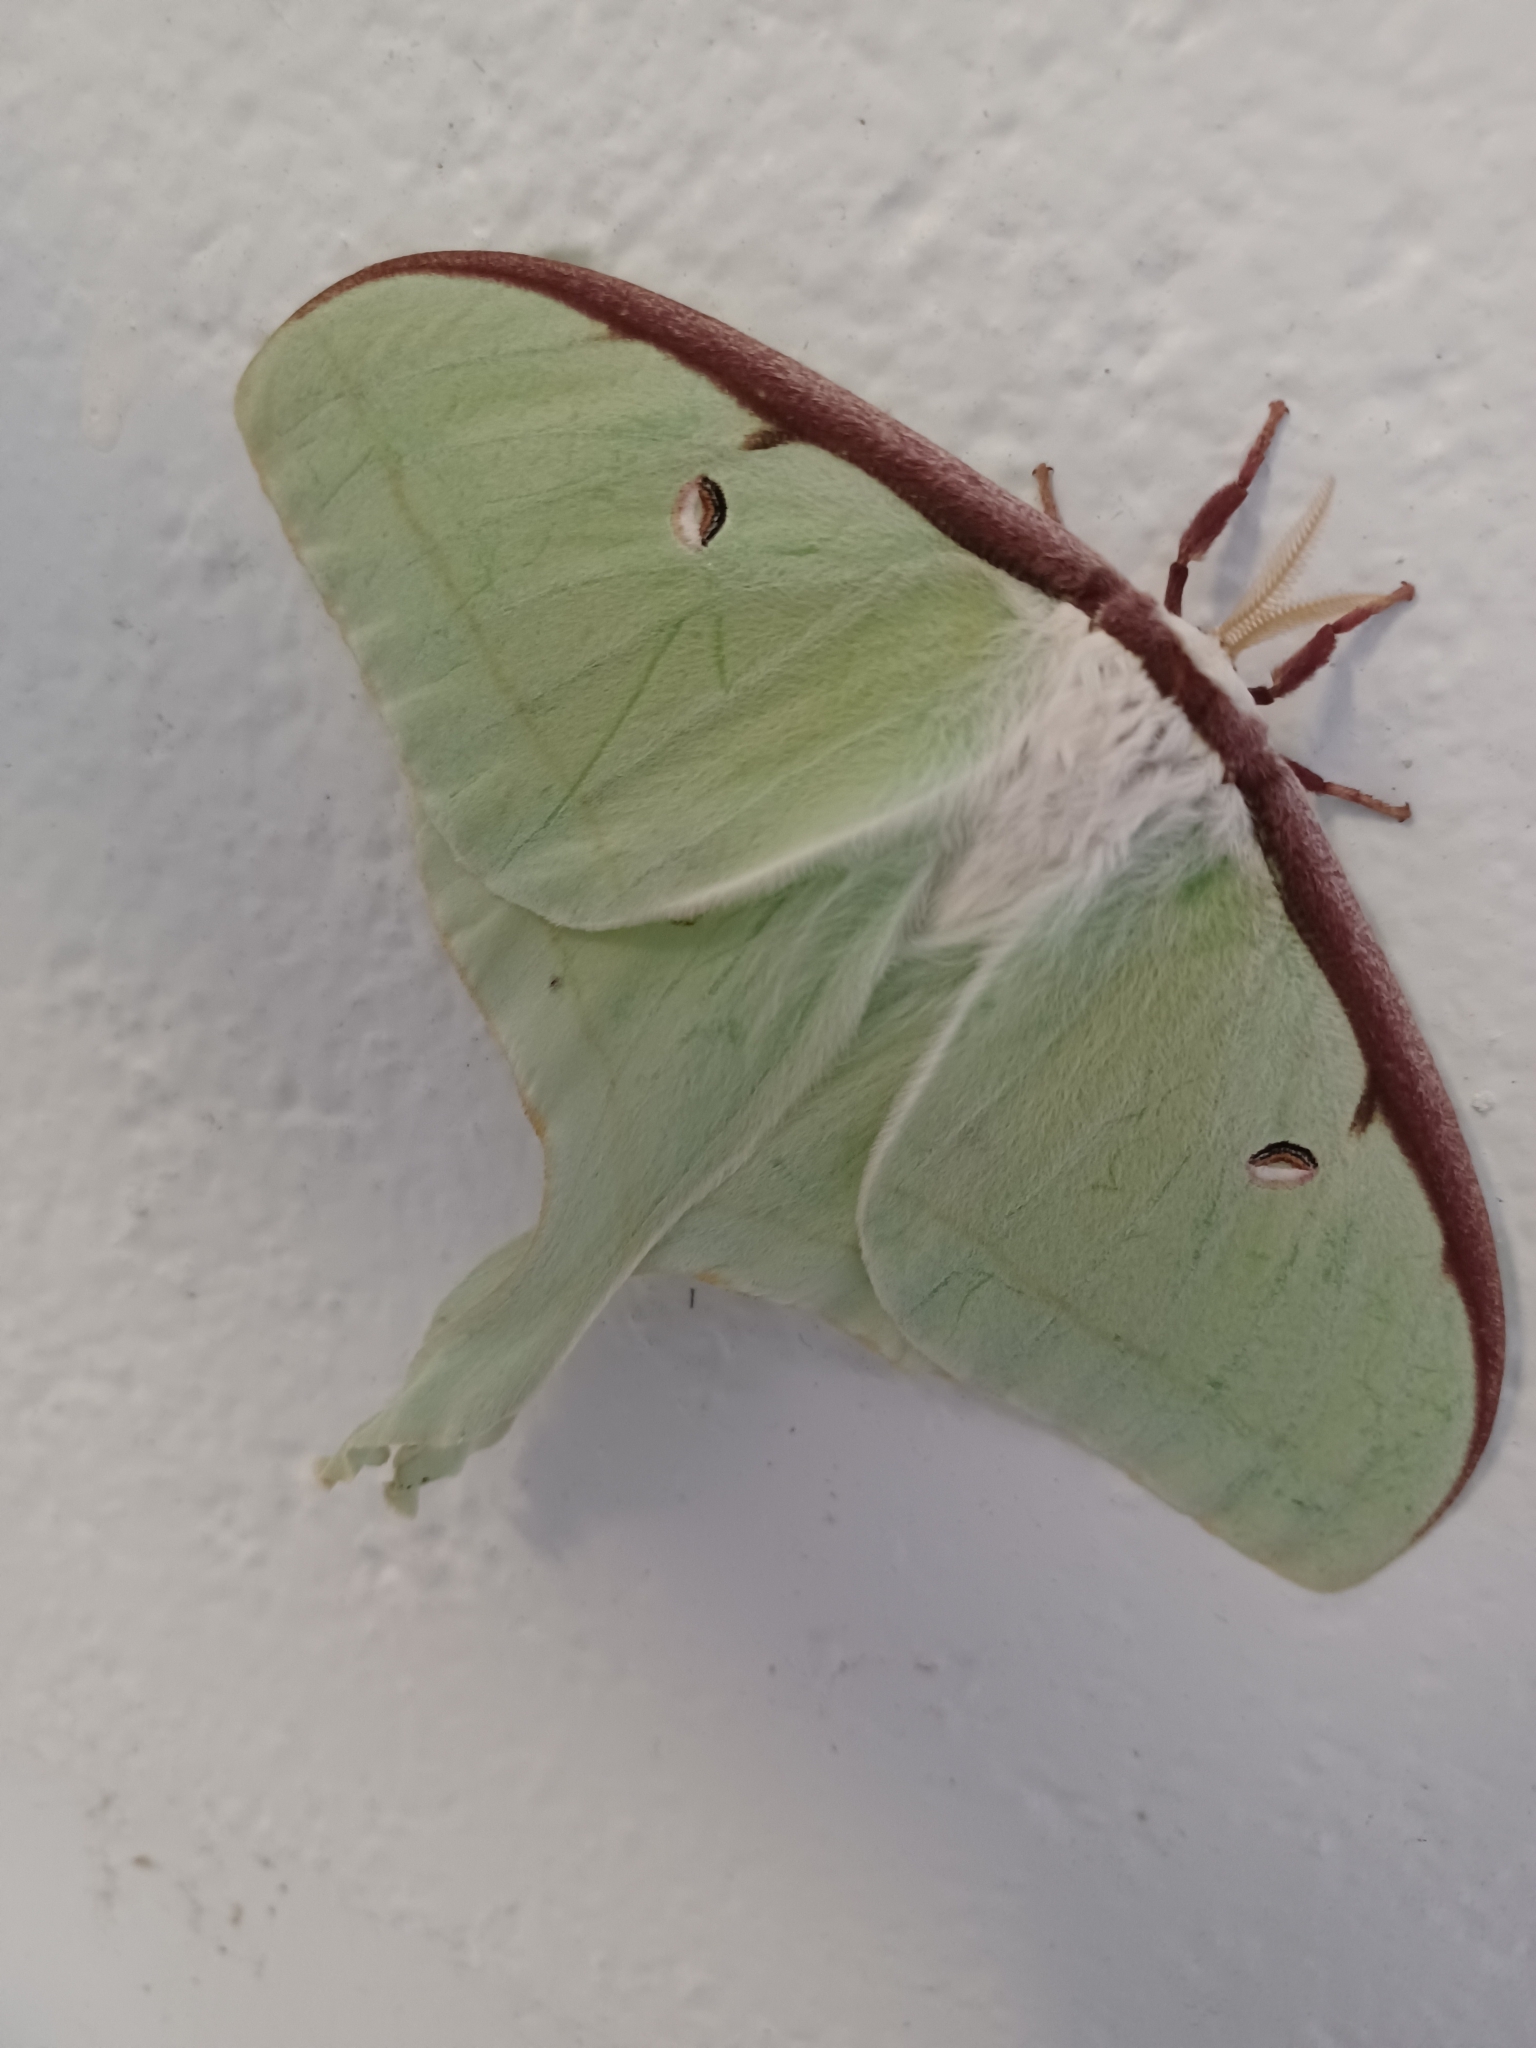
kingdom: Animalia
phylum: Arthropoda
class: Insecta
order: Lepidoptera
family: Saturniidae
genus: Actias
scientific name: Actias luna
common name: Luna moth
